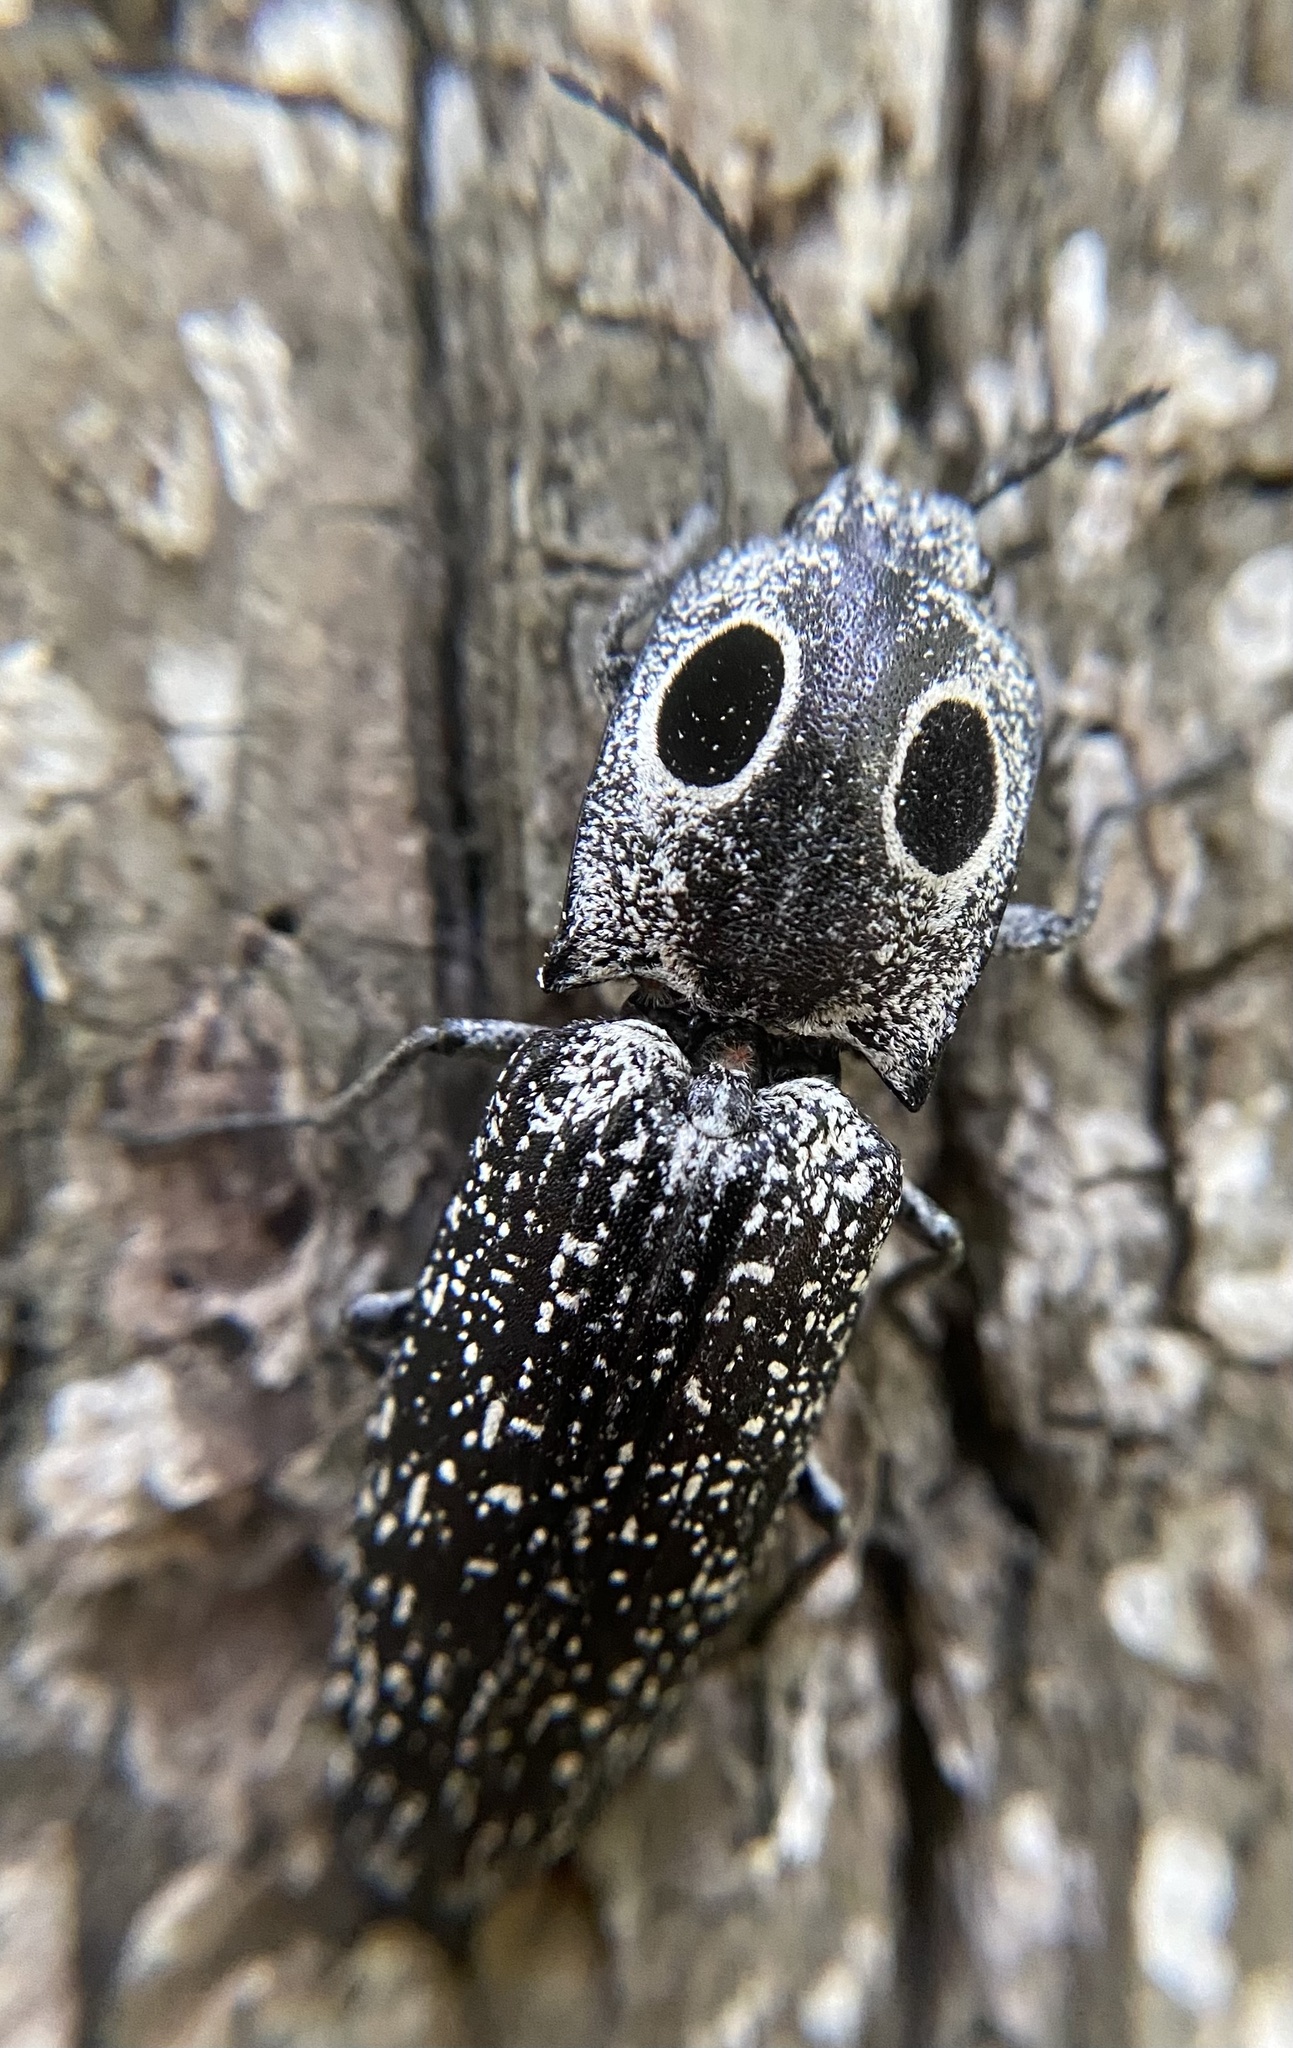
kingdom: Animalia
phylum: Arthropoda
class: Insecta
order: Coleoptera
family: Elateridae
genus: Alaus
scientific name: Alaus oculatus
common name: Eastern eyed click beetle
